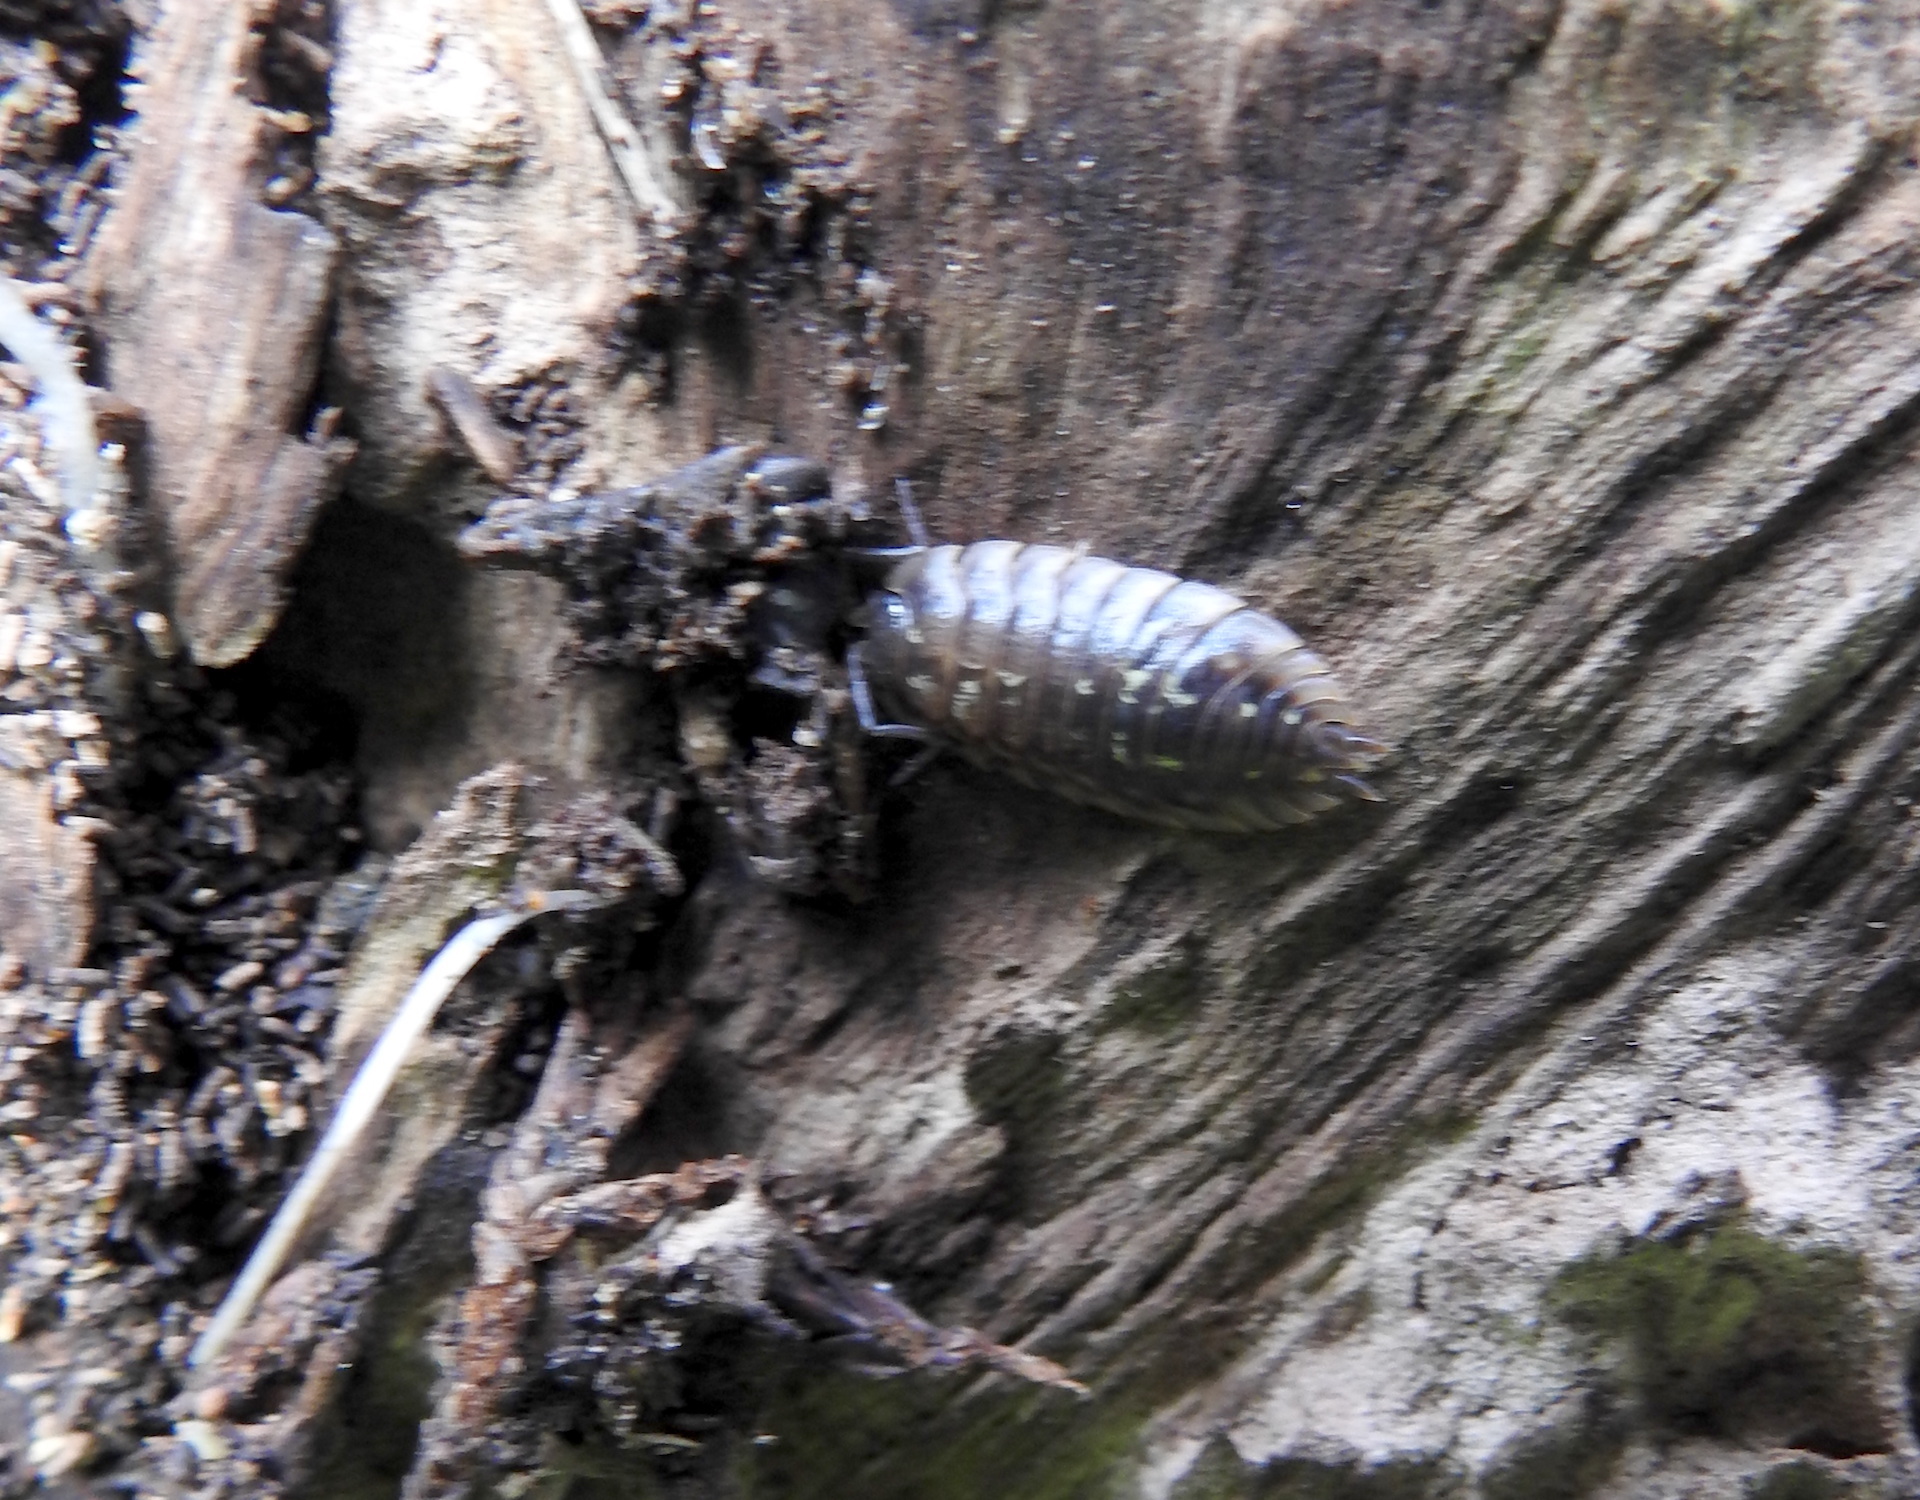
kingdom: Animalia
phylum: Arthropoda
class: Malacostraca
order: Isopoda
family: Oniscidae
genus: Oniscus
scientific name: Oniscus asellus
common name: Common shiny woodlouse
